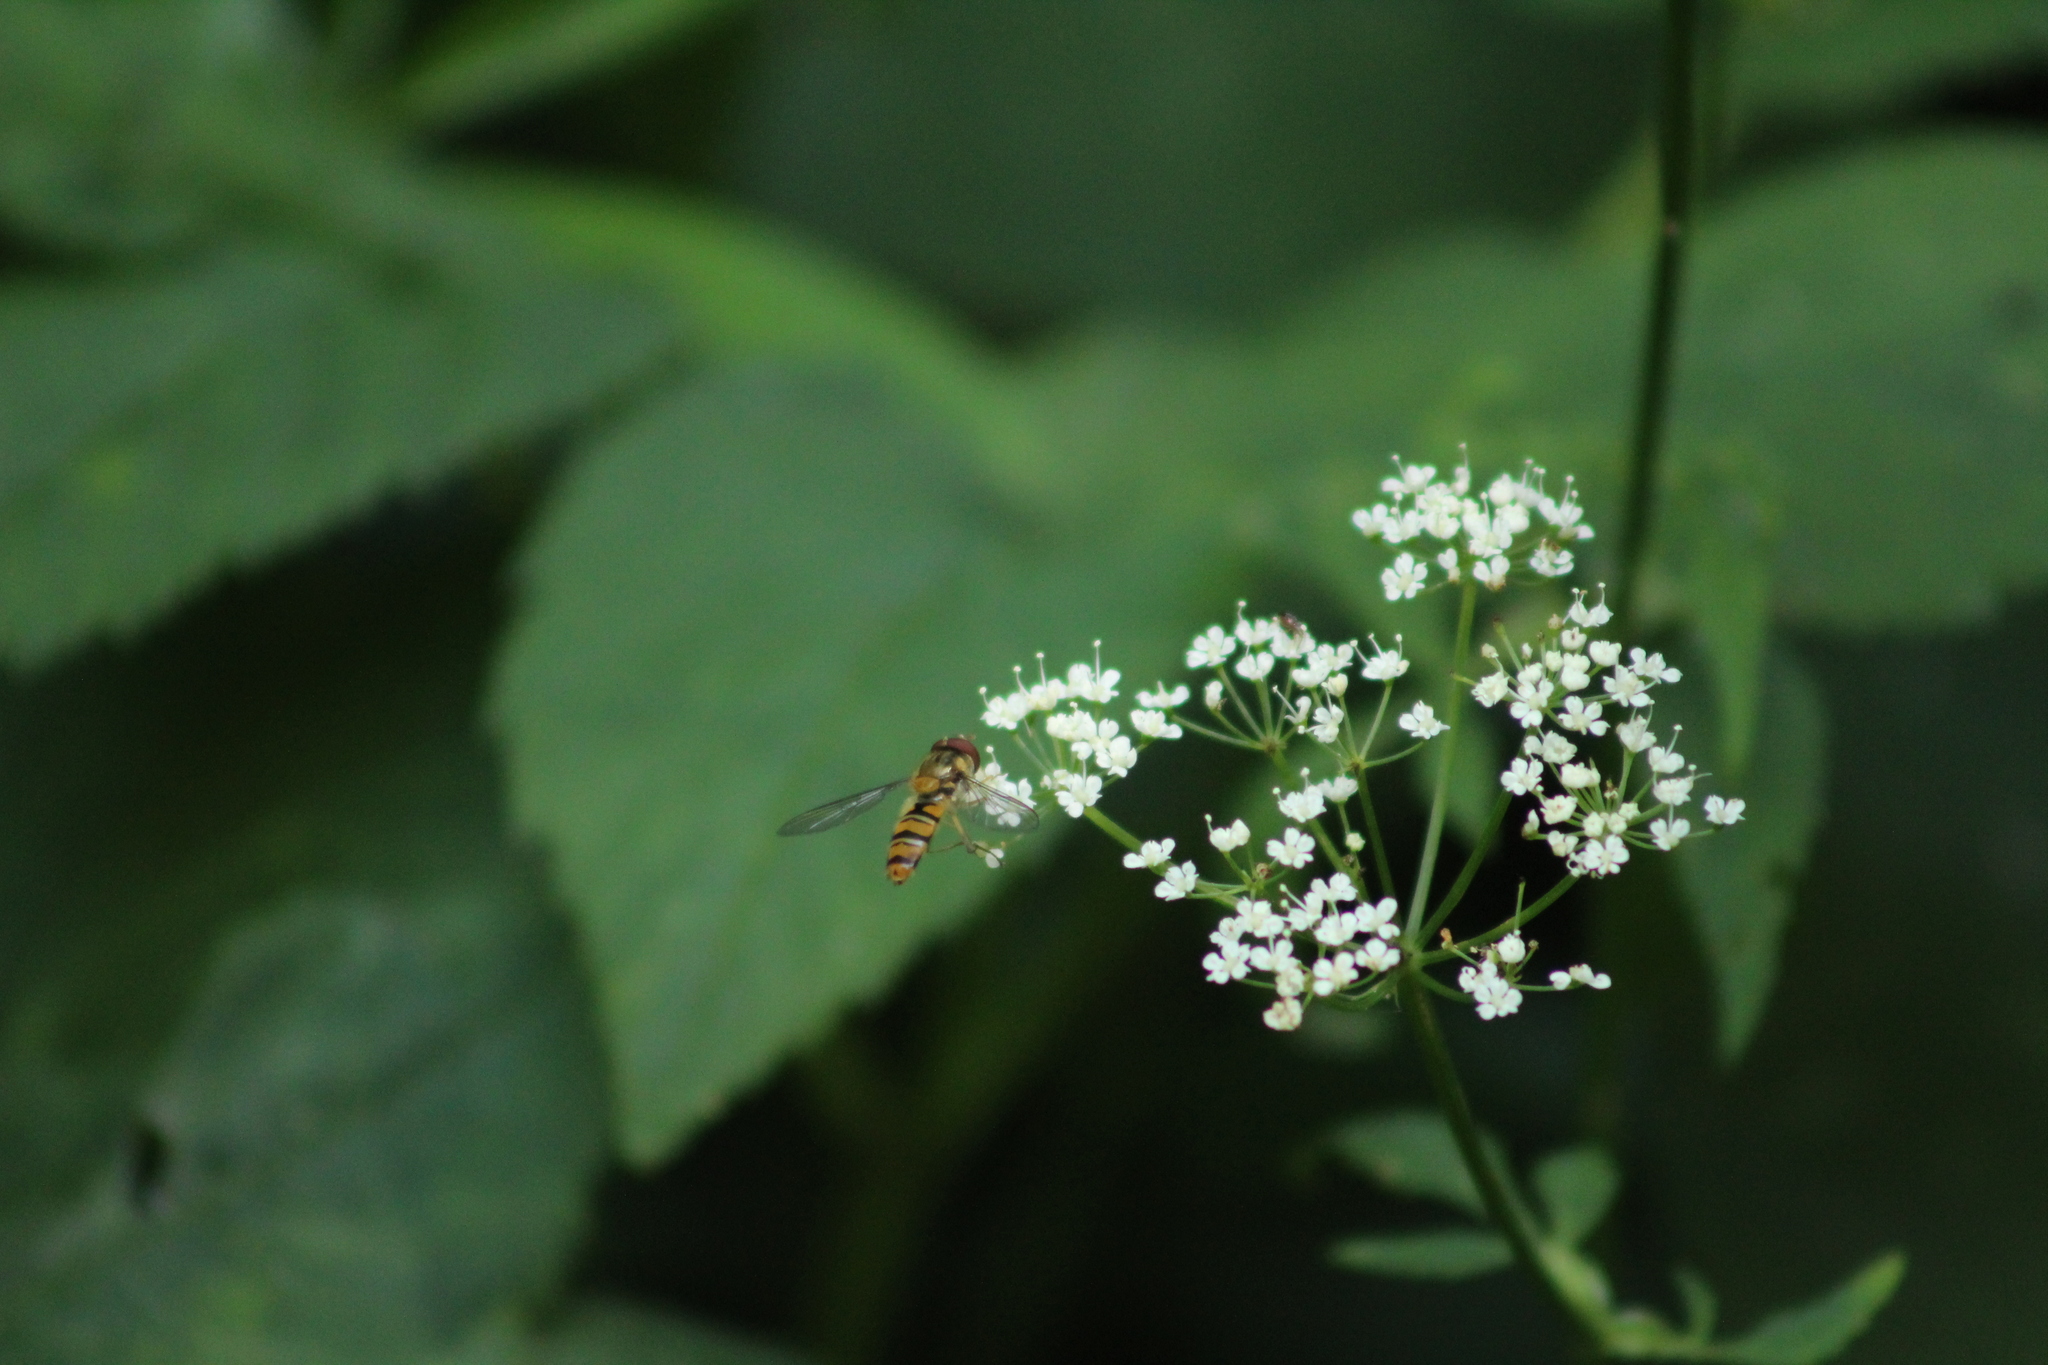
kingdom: Animalia
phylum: Arthropoda
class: Insecta
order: Diptera
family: Syrphidae
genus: Episyrphus
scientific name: Episyrphus balteatus
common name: Marmalade hoverfly
